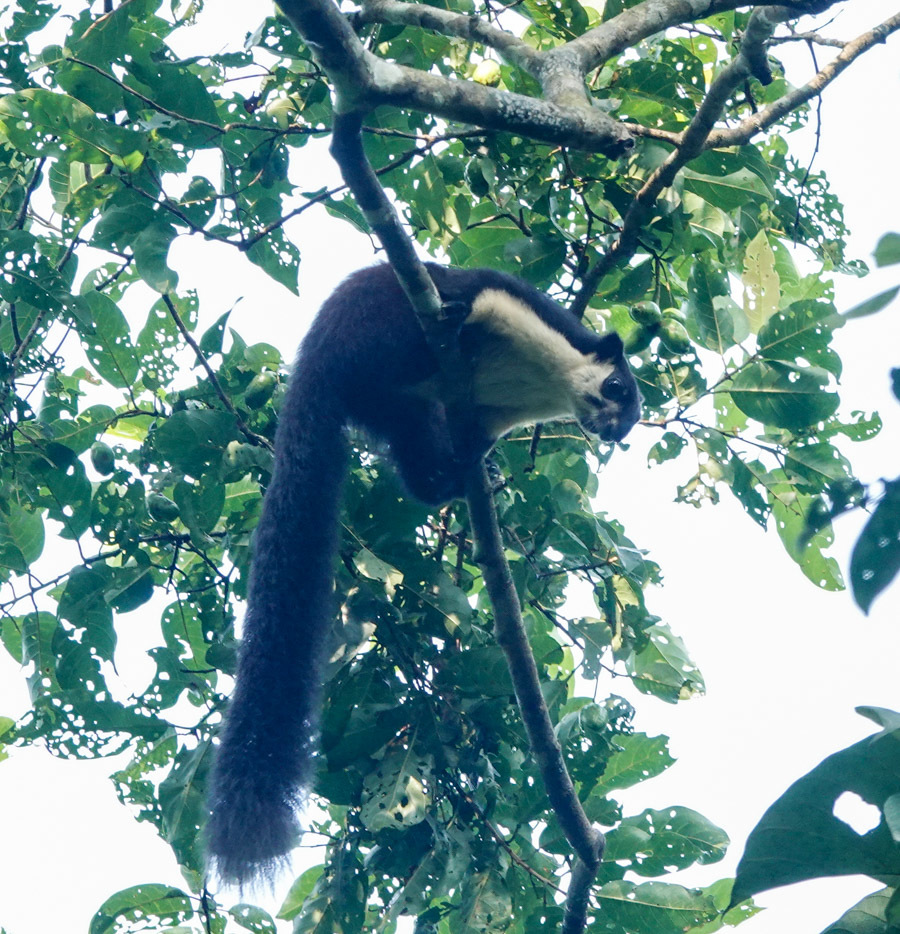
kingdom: Animalia
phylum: Chordata
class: Mammalia
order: Rodentia
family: Sciuridae
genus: Ratufa
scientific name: Ratufa bicolor
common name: Black giant squirrel
